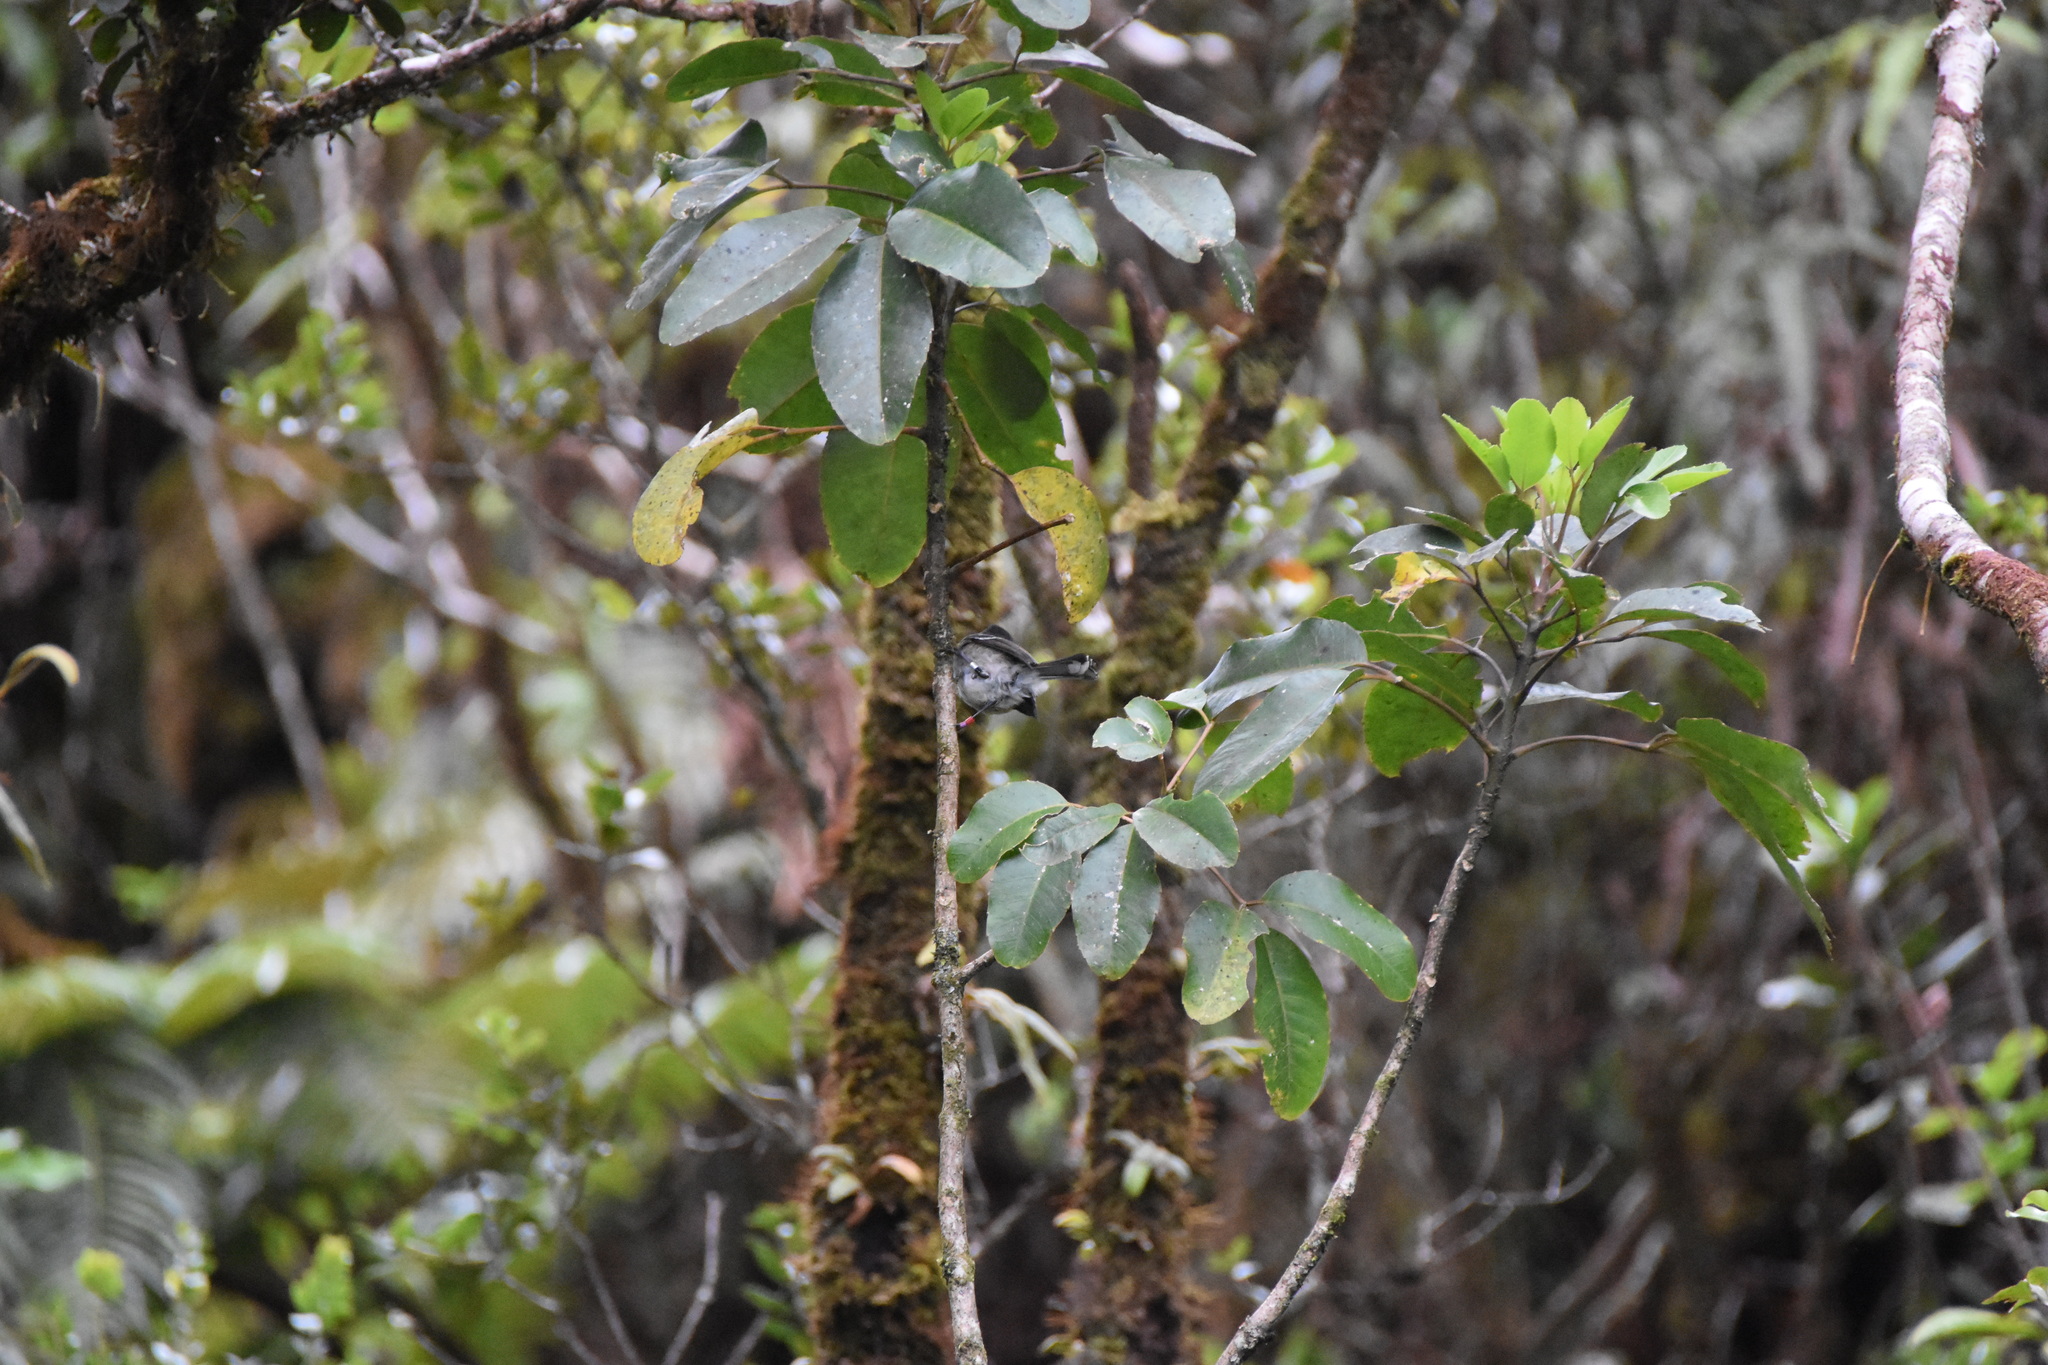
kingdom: Animalia
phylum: Chordata
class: Aves
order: Passeriformes
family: Monarchidae
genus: Chasiempis
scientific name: Chasiempis sclateri
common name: Kauai elepaio
